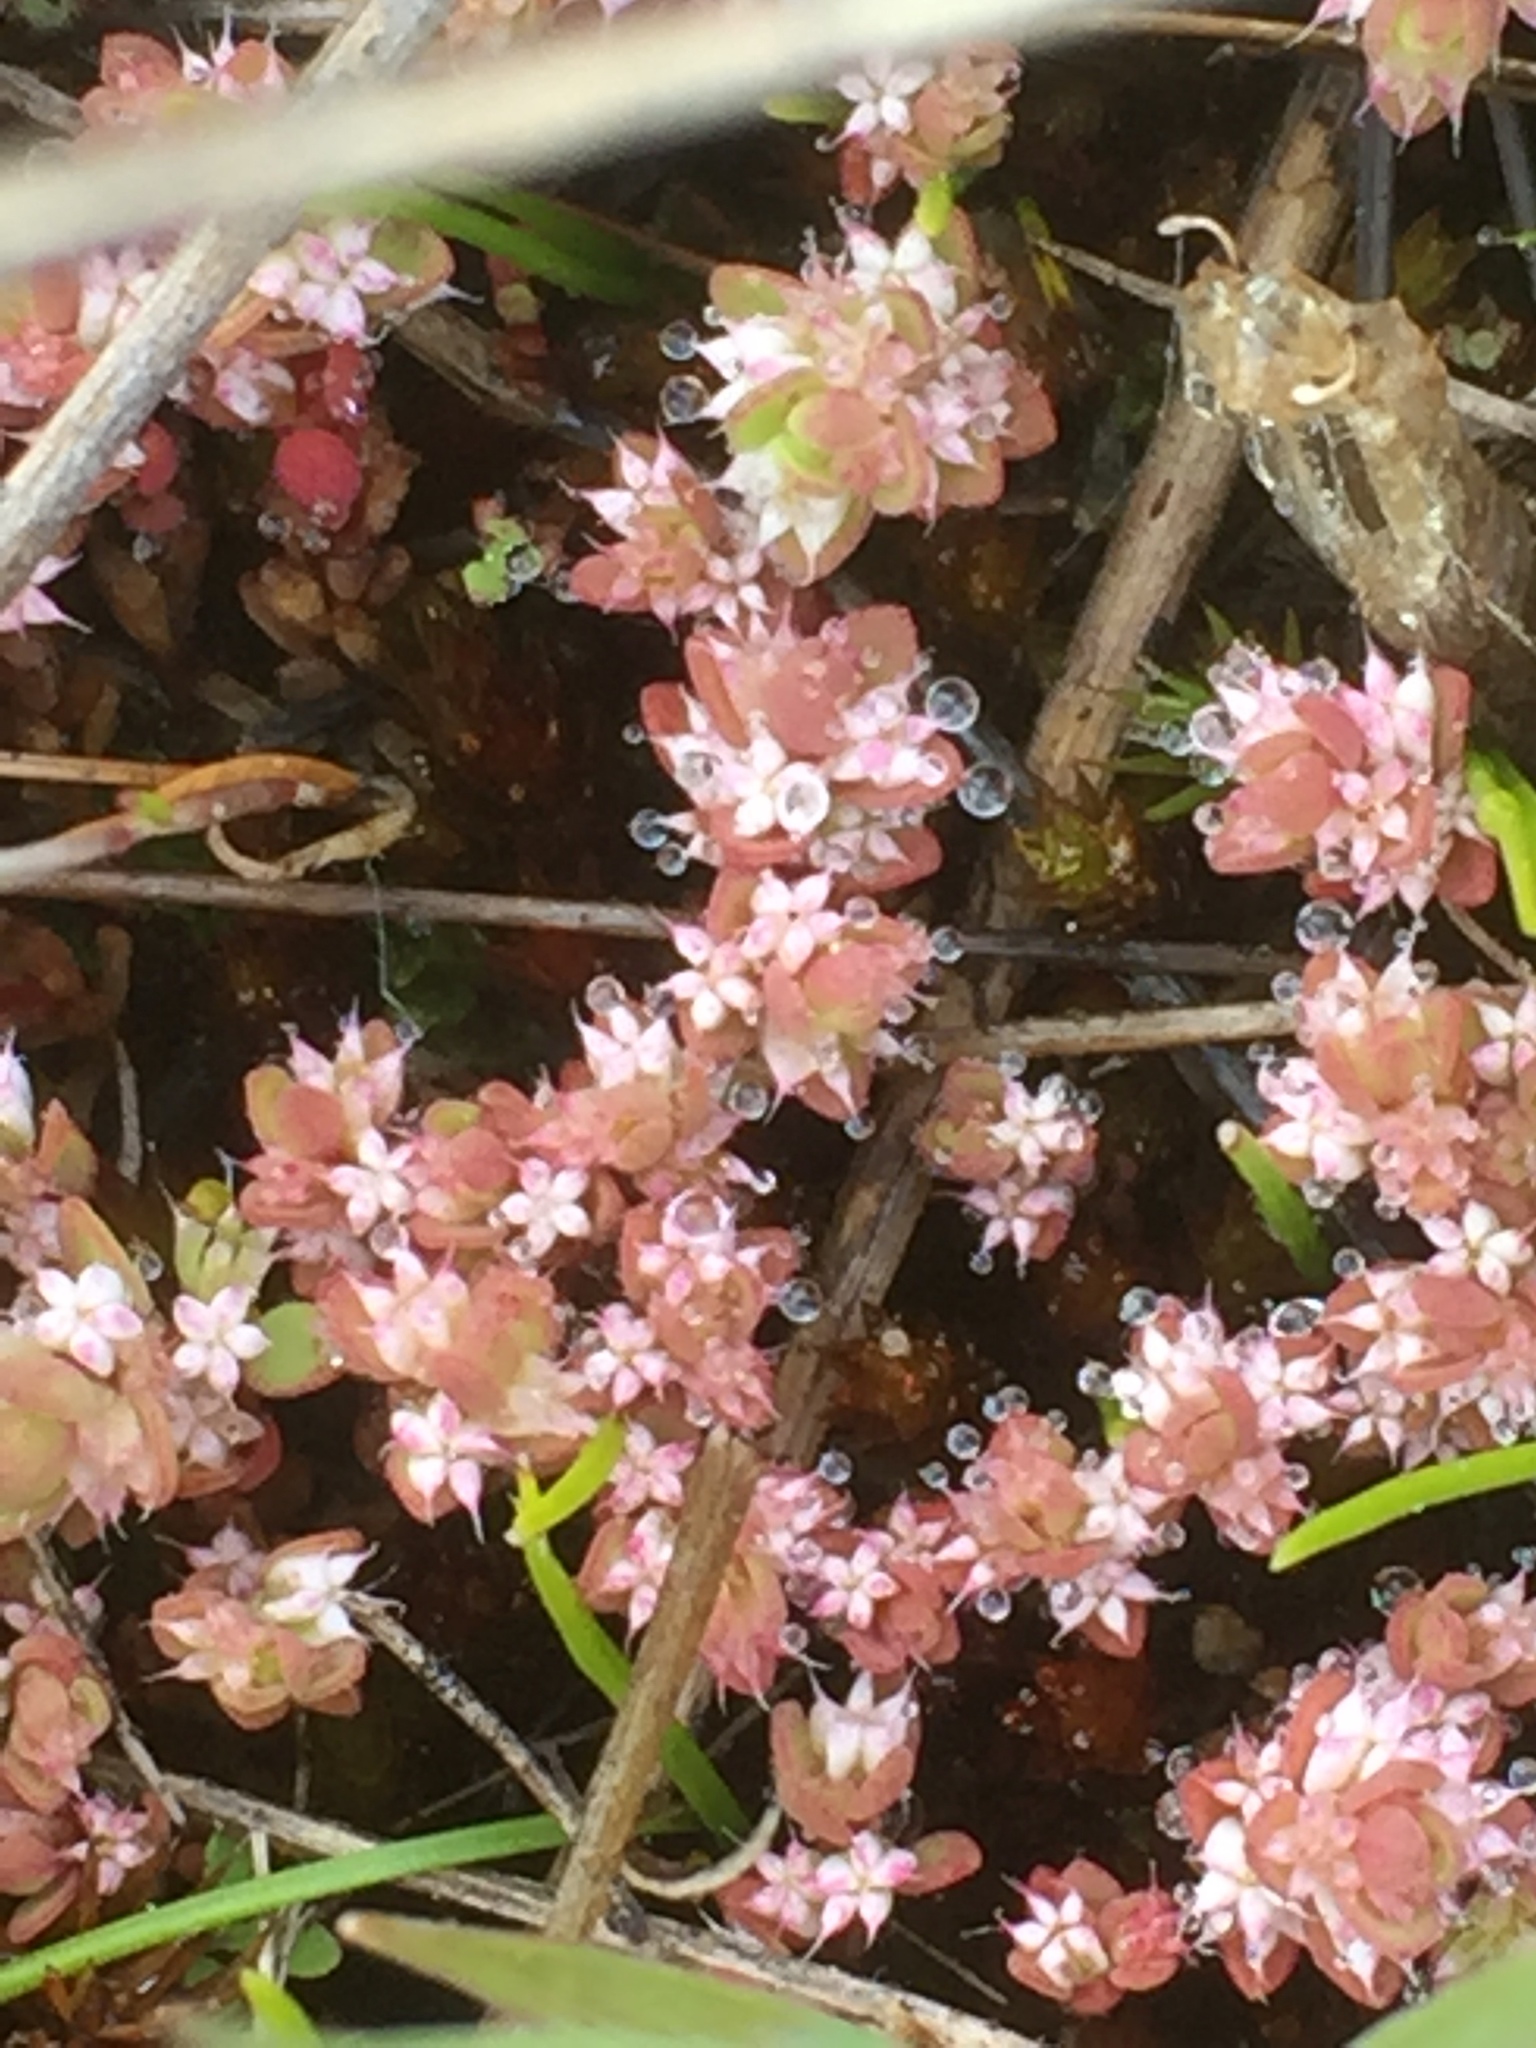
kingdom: Plantae
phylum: Tracheophyta
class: Magnoliopsida
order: Caryophyllales
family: Caryophyllaceae
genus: Illecebrum
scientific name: Illecebrum verticillatum
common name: Coral necklace
